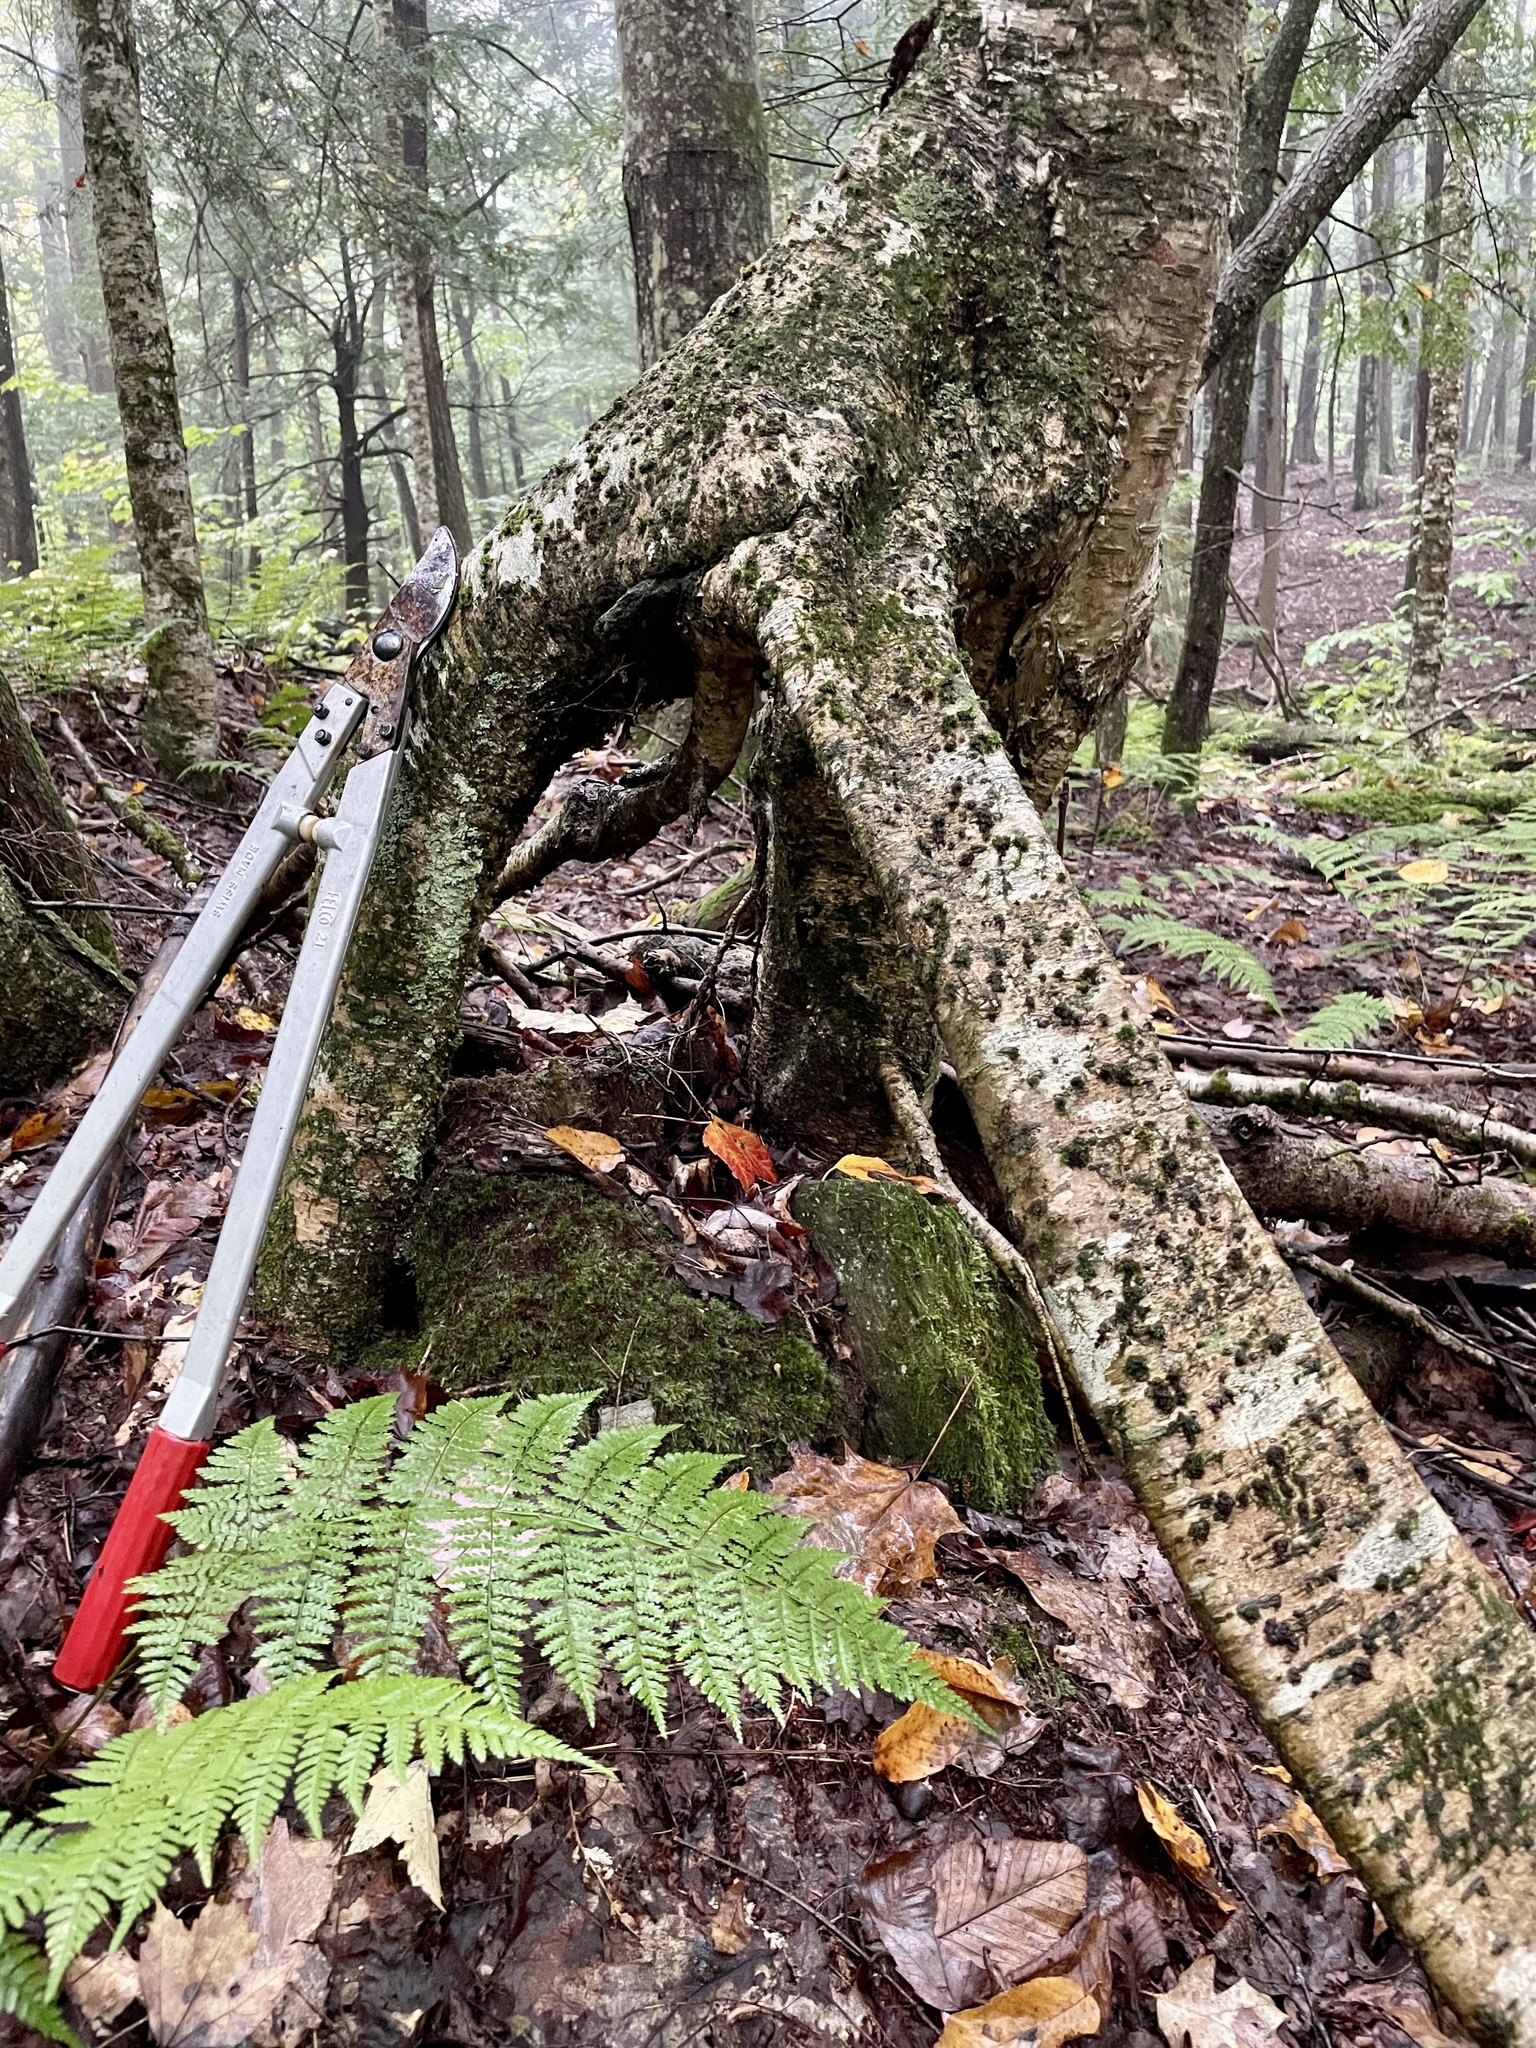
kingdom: Plantae
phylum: Tracheophyta
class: Magnoliopsida
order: Fagales
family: Betulaceae
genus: Betula
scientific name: Betula alleghaniensis
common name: Yellow birch
